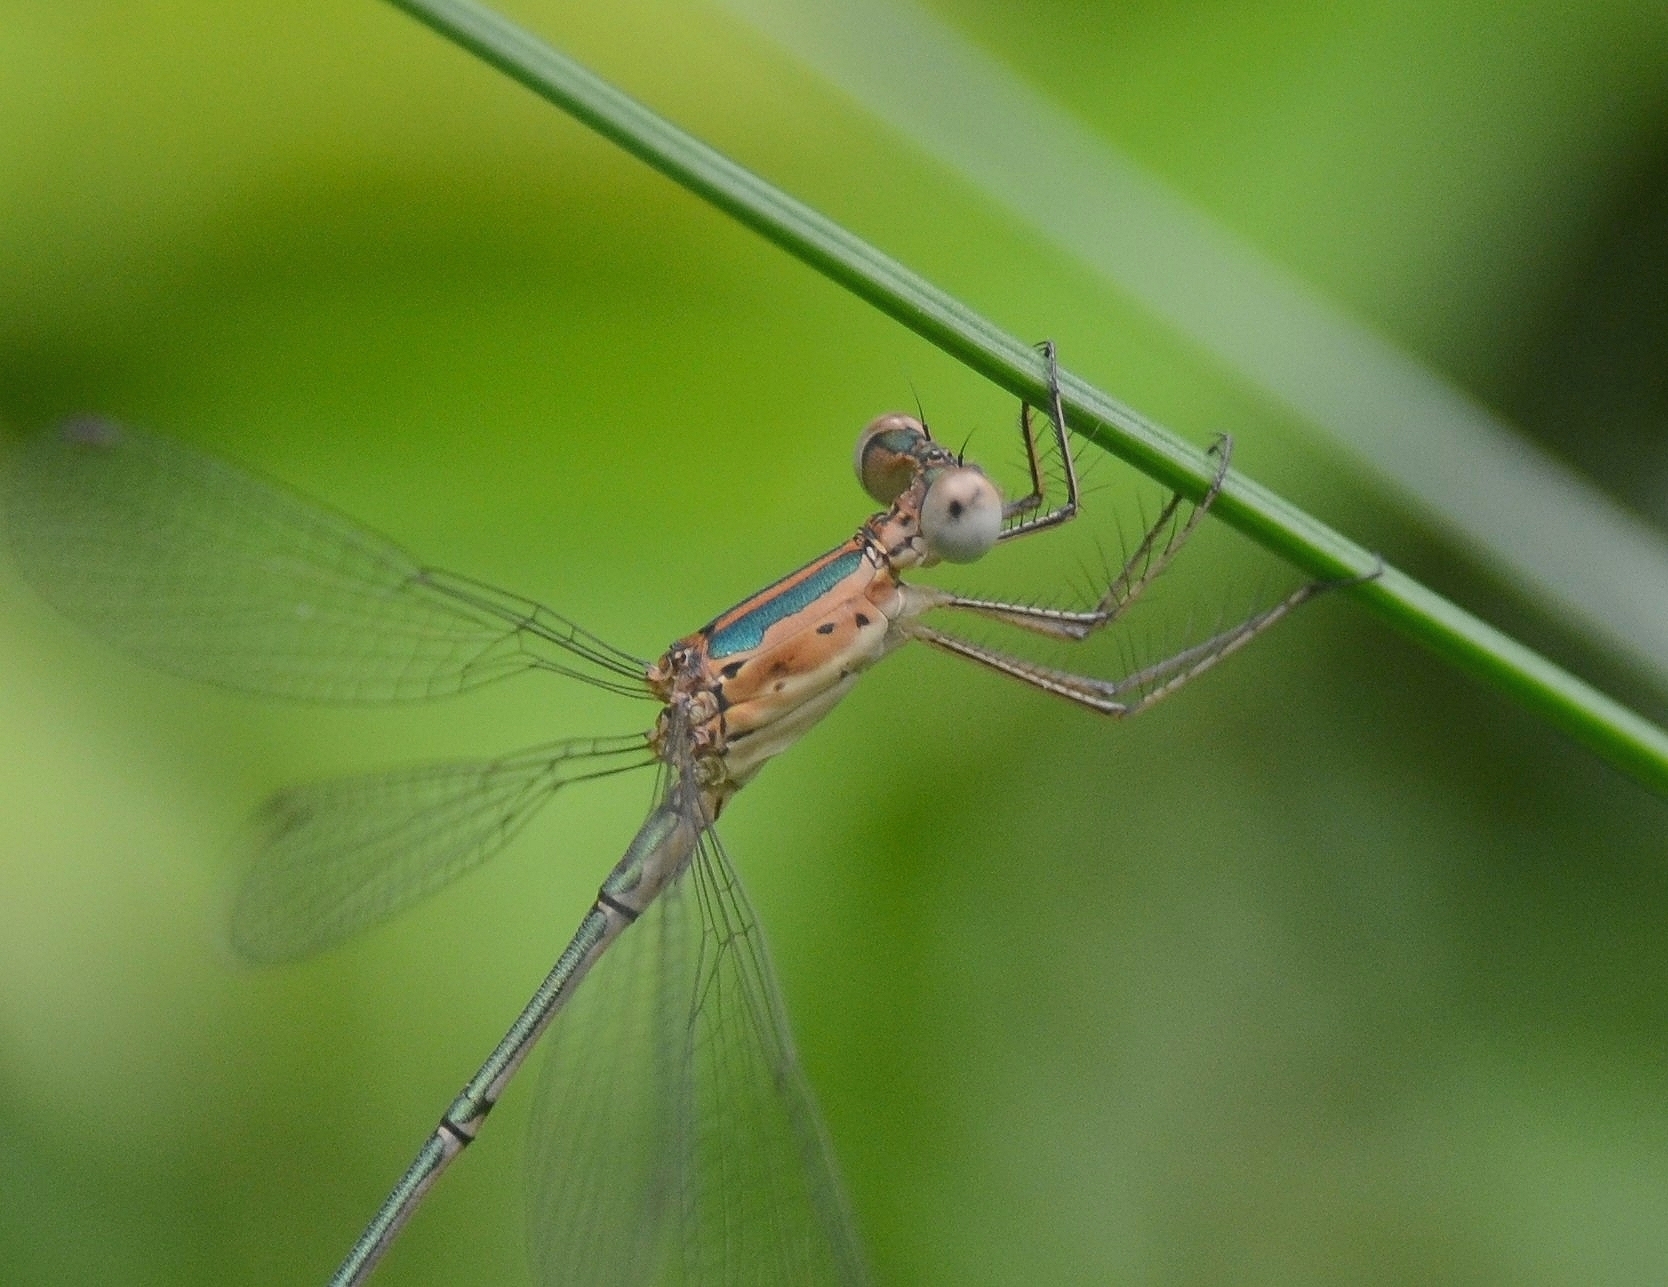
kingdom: Animalia
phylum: Arthropoda
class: Insecta
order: Odonata
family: Lestidae
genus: Lestes
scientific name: Lestes elatus
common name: Emerald spreadwing
